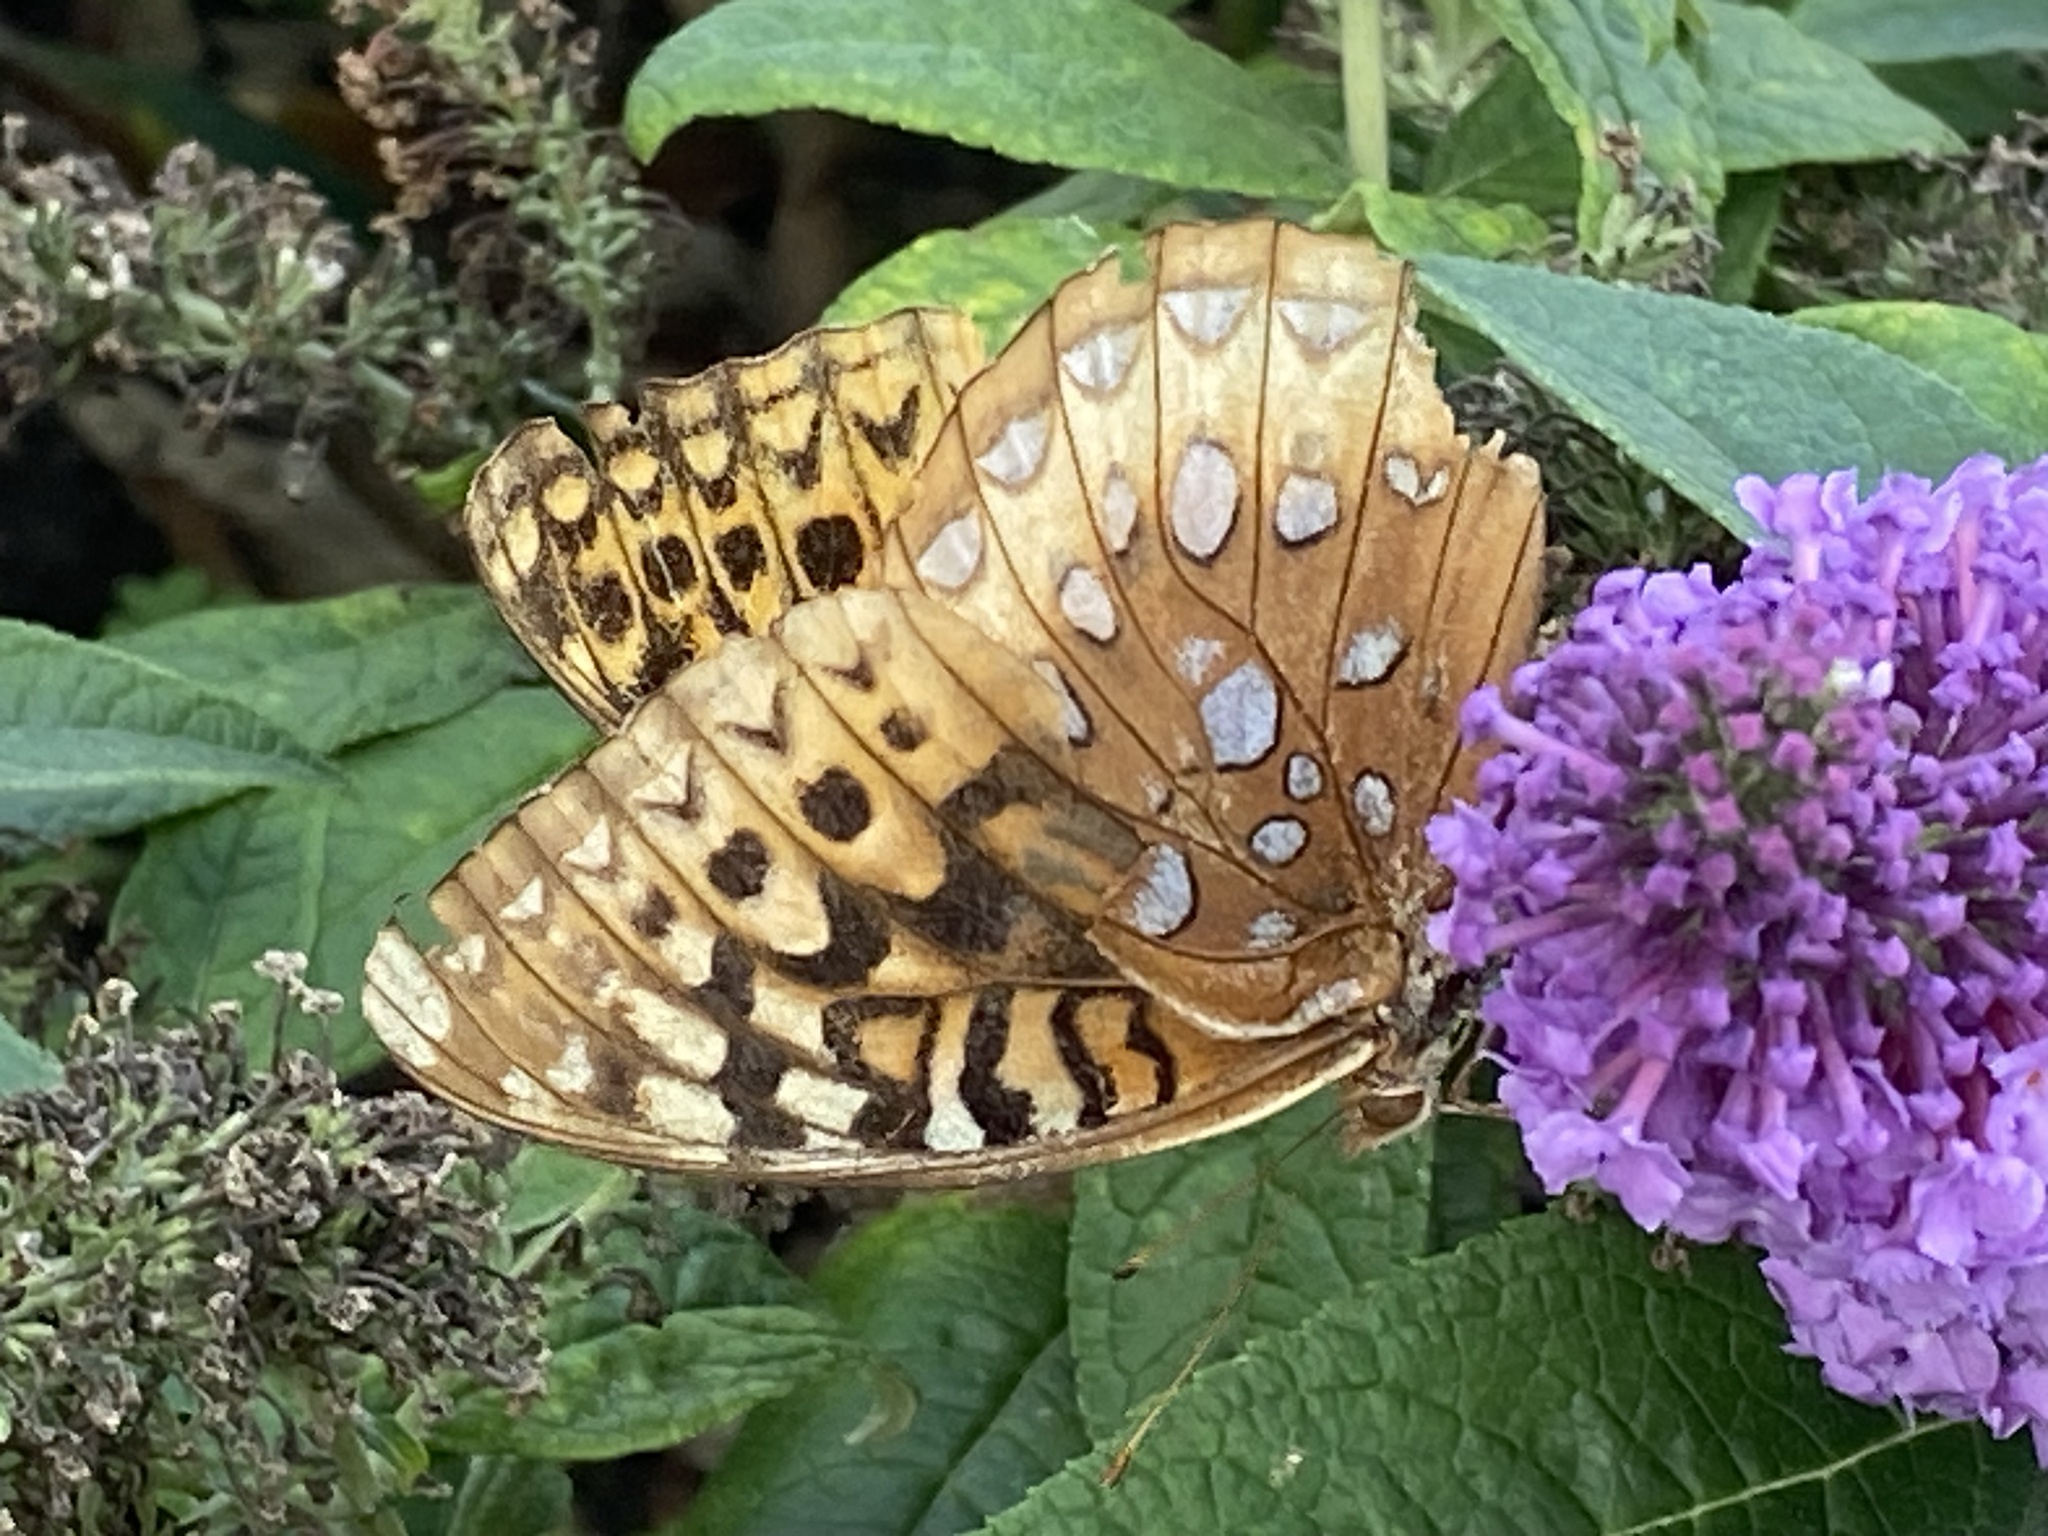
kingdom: Animalia
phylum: Arthropoda
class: Insecta
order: Lepidoptera
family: Nymphalidae
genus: Speyeria
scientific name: Speyeria cybele
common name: Great spangled fritillary
